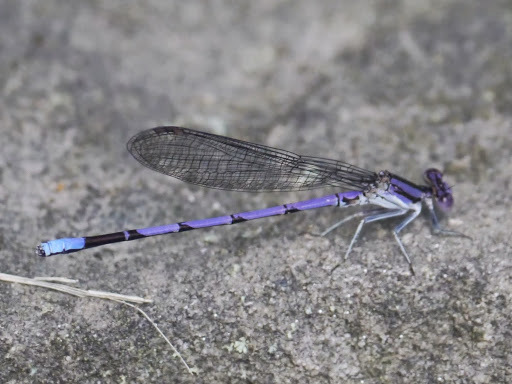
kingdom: Animalia
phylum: Arthropoda
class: Insecta
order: Odonata
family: Coenagrionidae
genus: Argia
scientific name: Argia fumipennis
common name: Variable dancer
